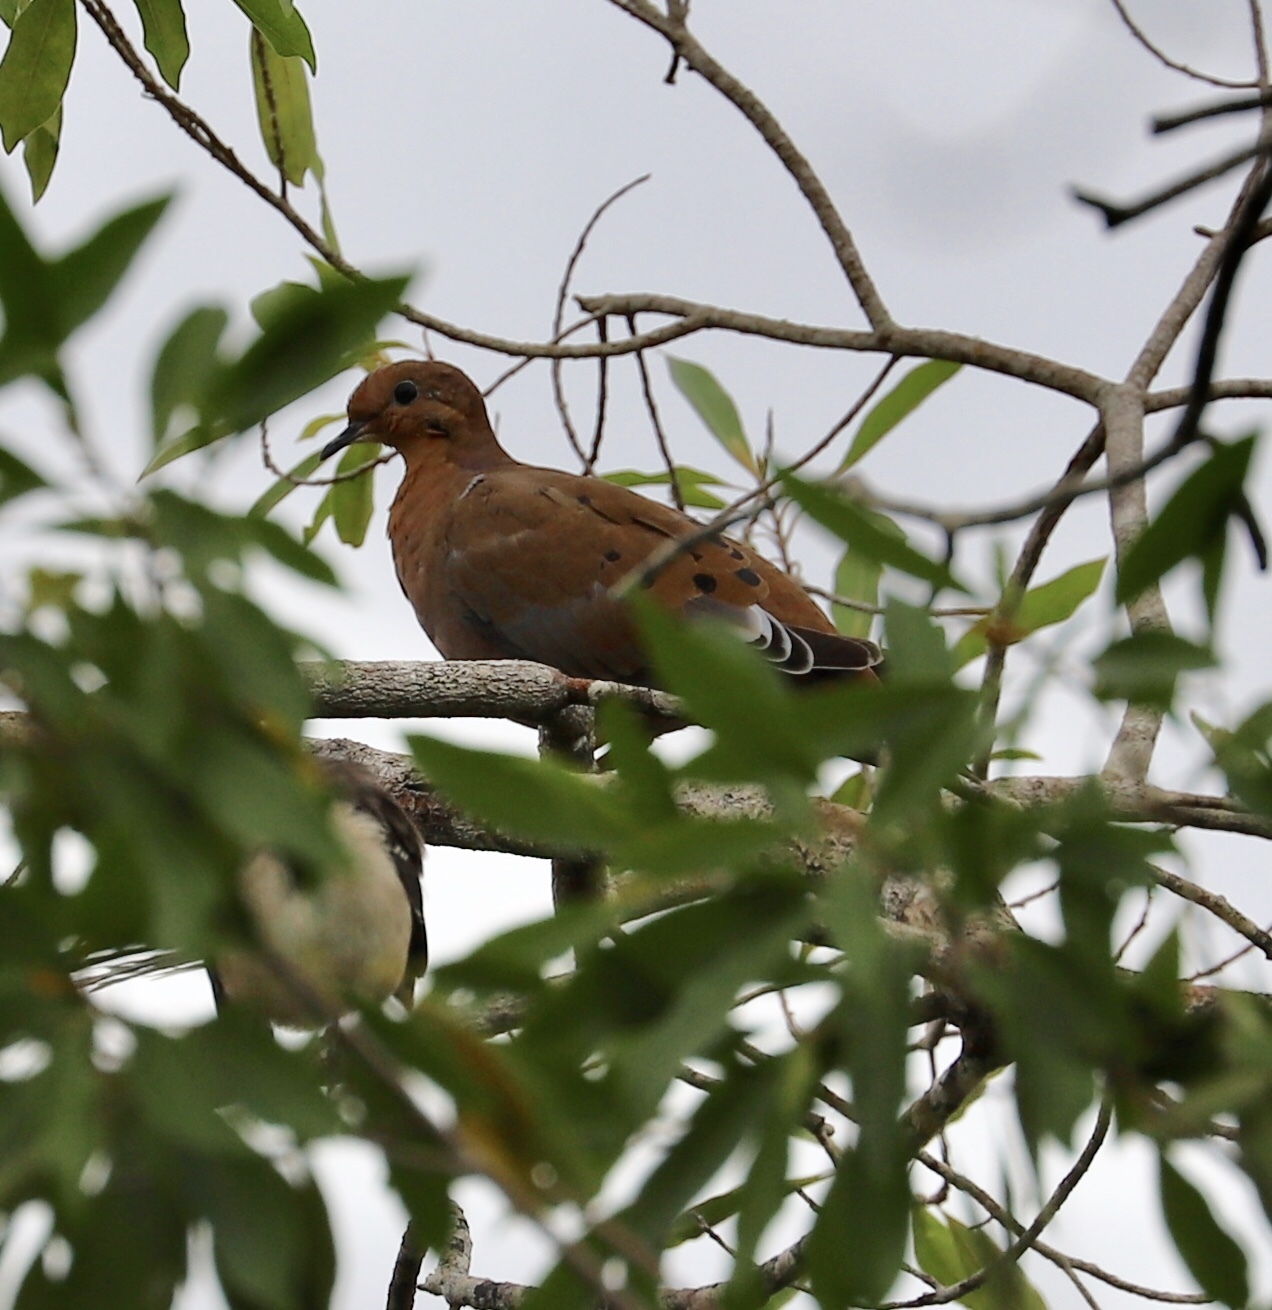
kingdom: Animalia
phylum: Chordata
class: Aves
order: Columbiformes
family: Columbidae
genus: Zenaida
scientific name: Zenaida aurita
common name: Zenaida dove
